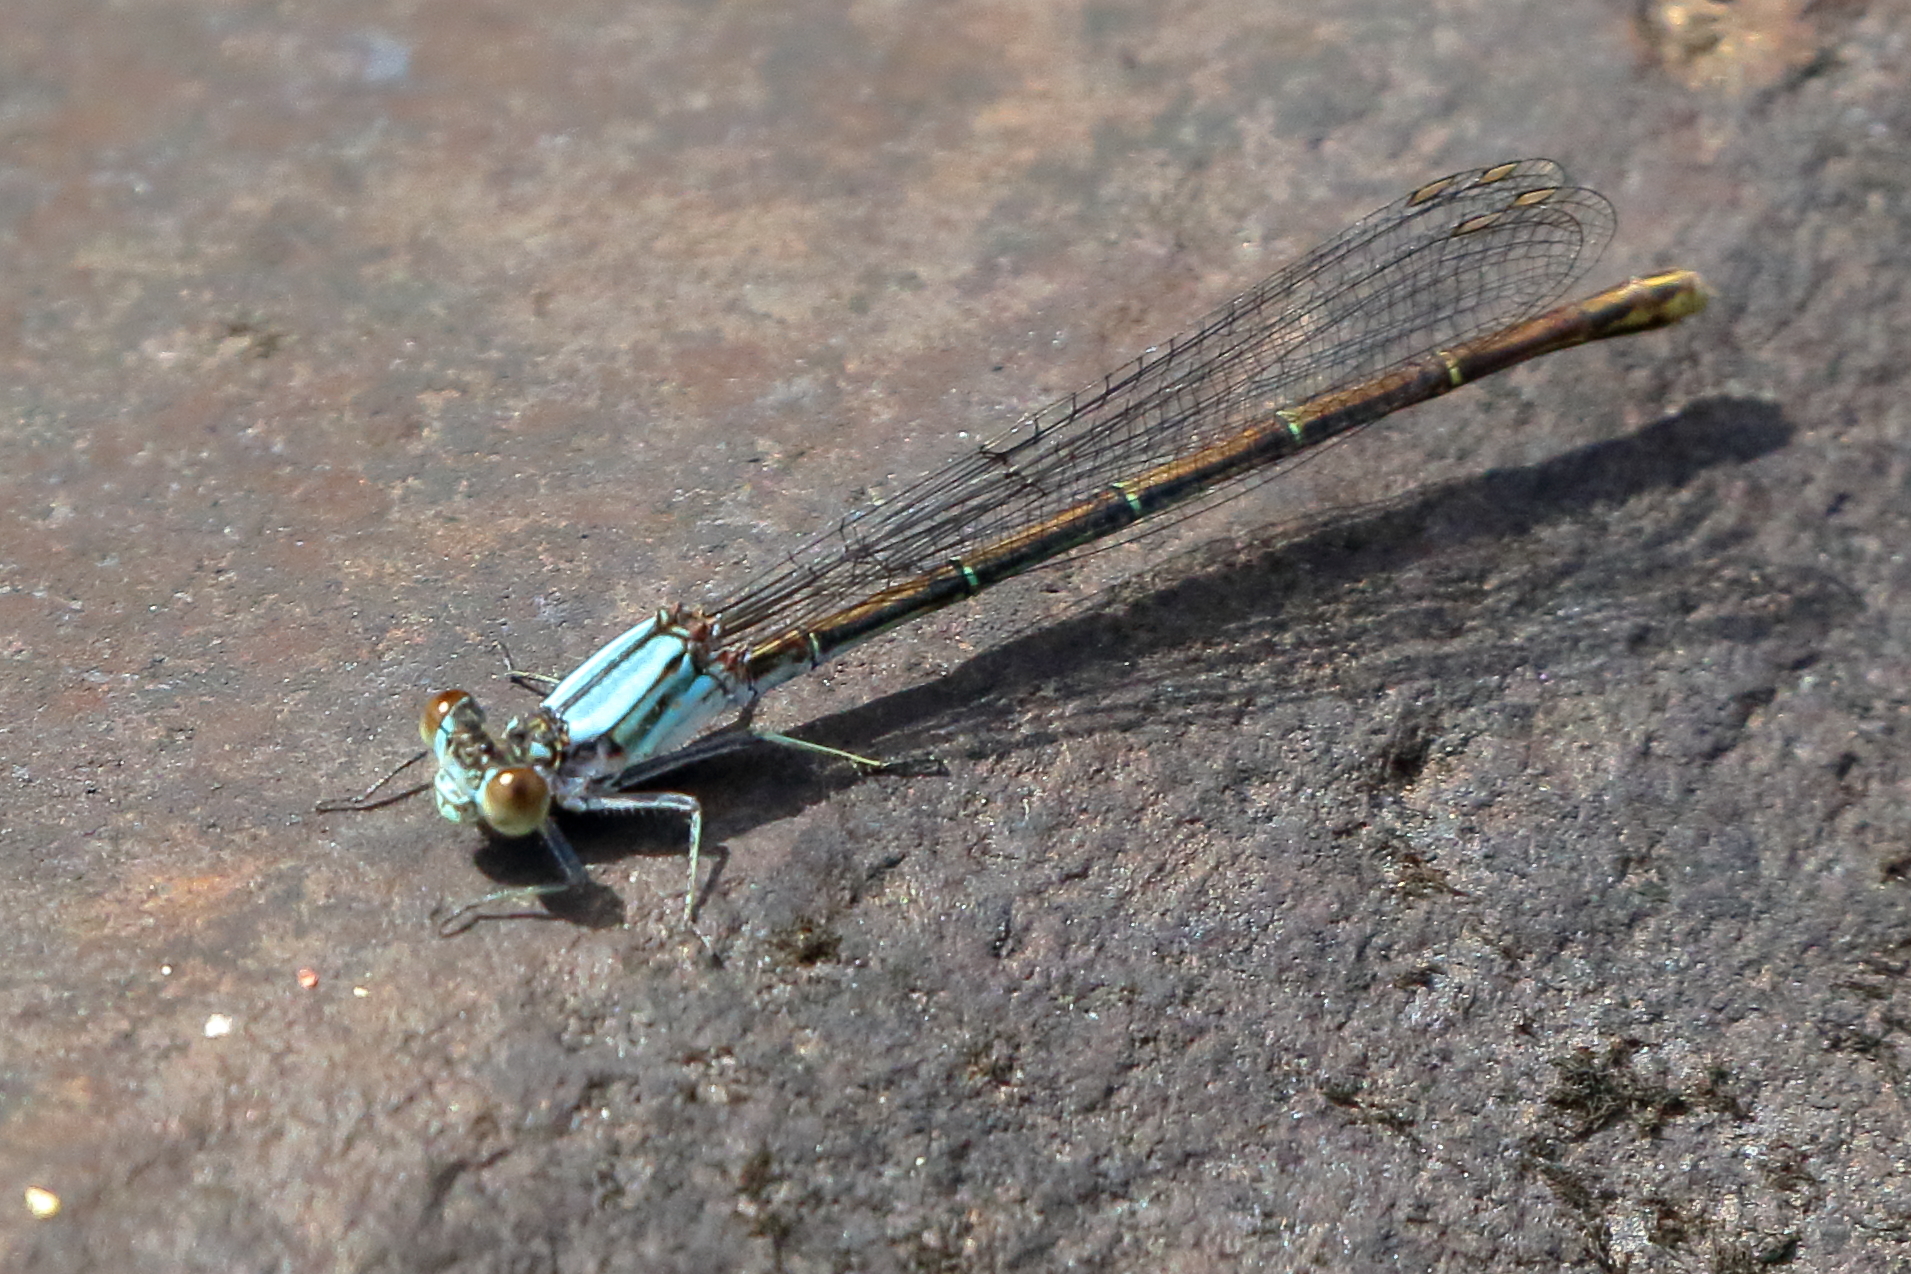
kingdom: Animalia
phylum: Arthropoda
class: Insecta
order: Odonata
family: Coenagrionidae
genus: Argia
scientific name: Argia moesta
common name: Powdered dancer
